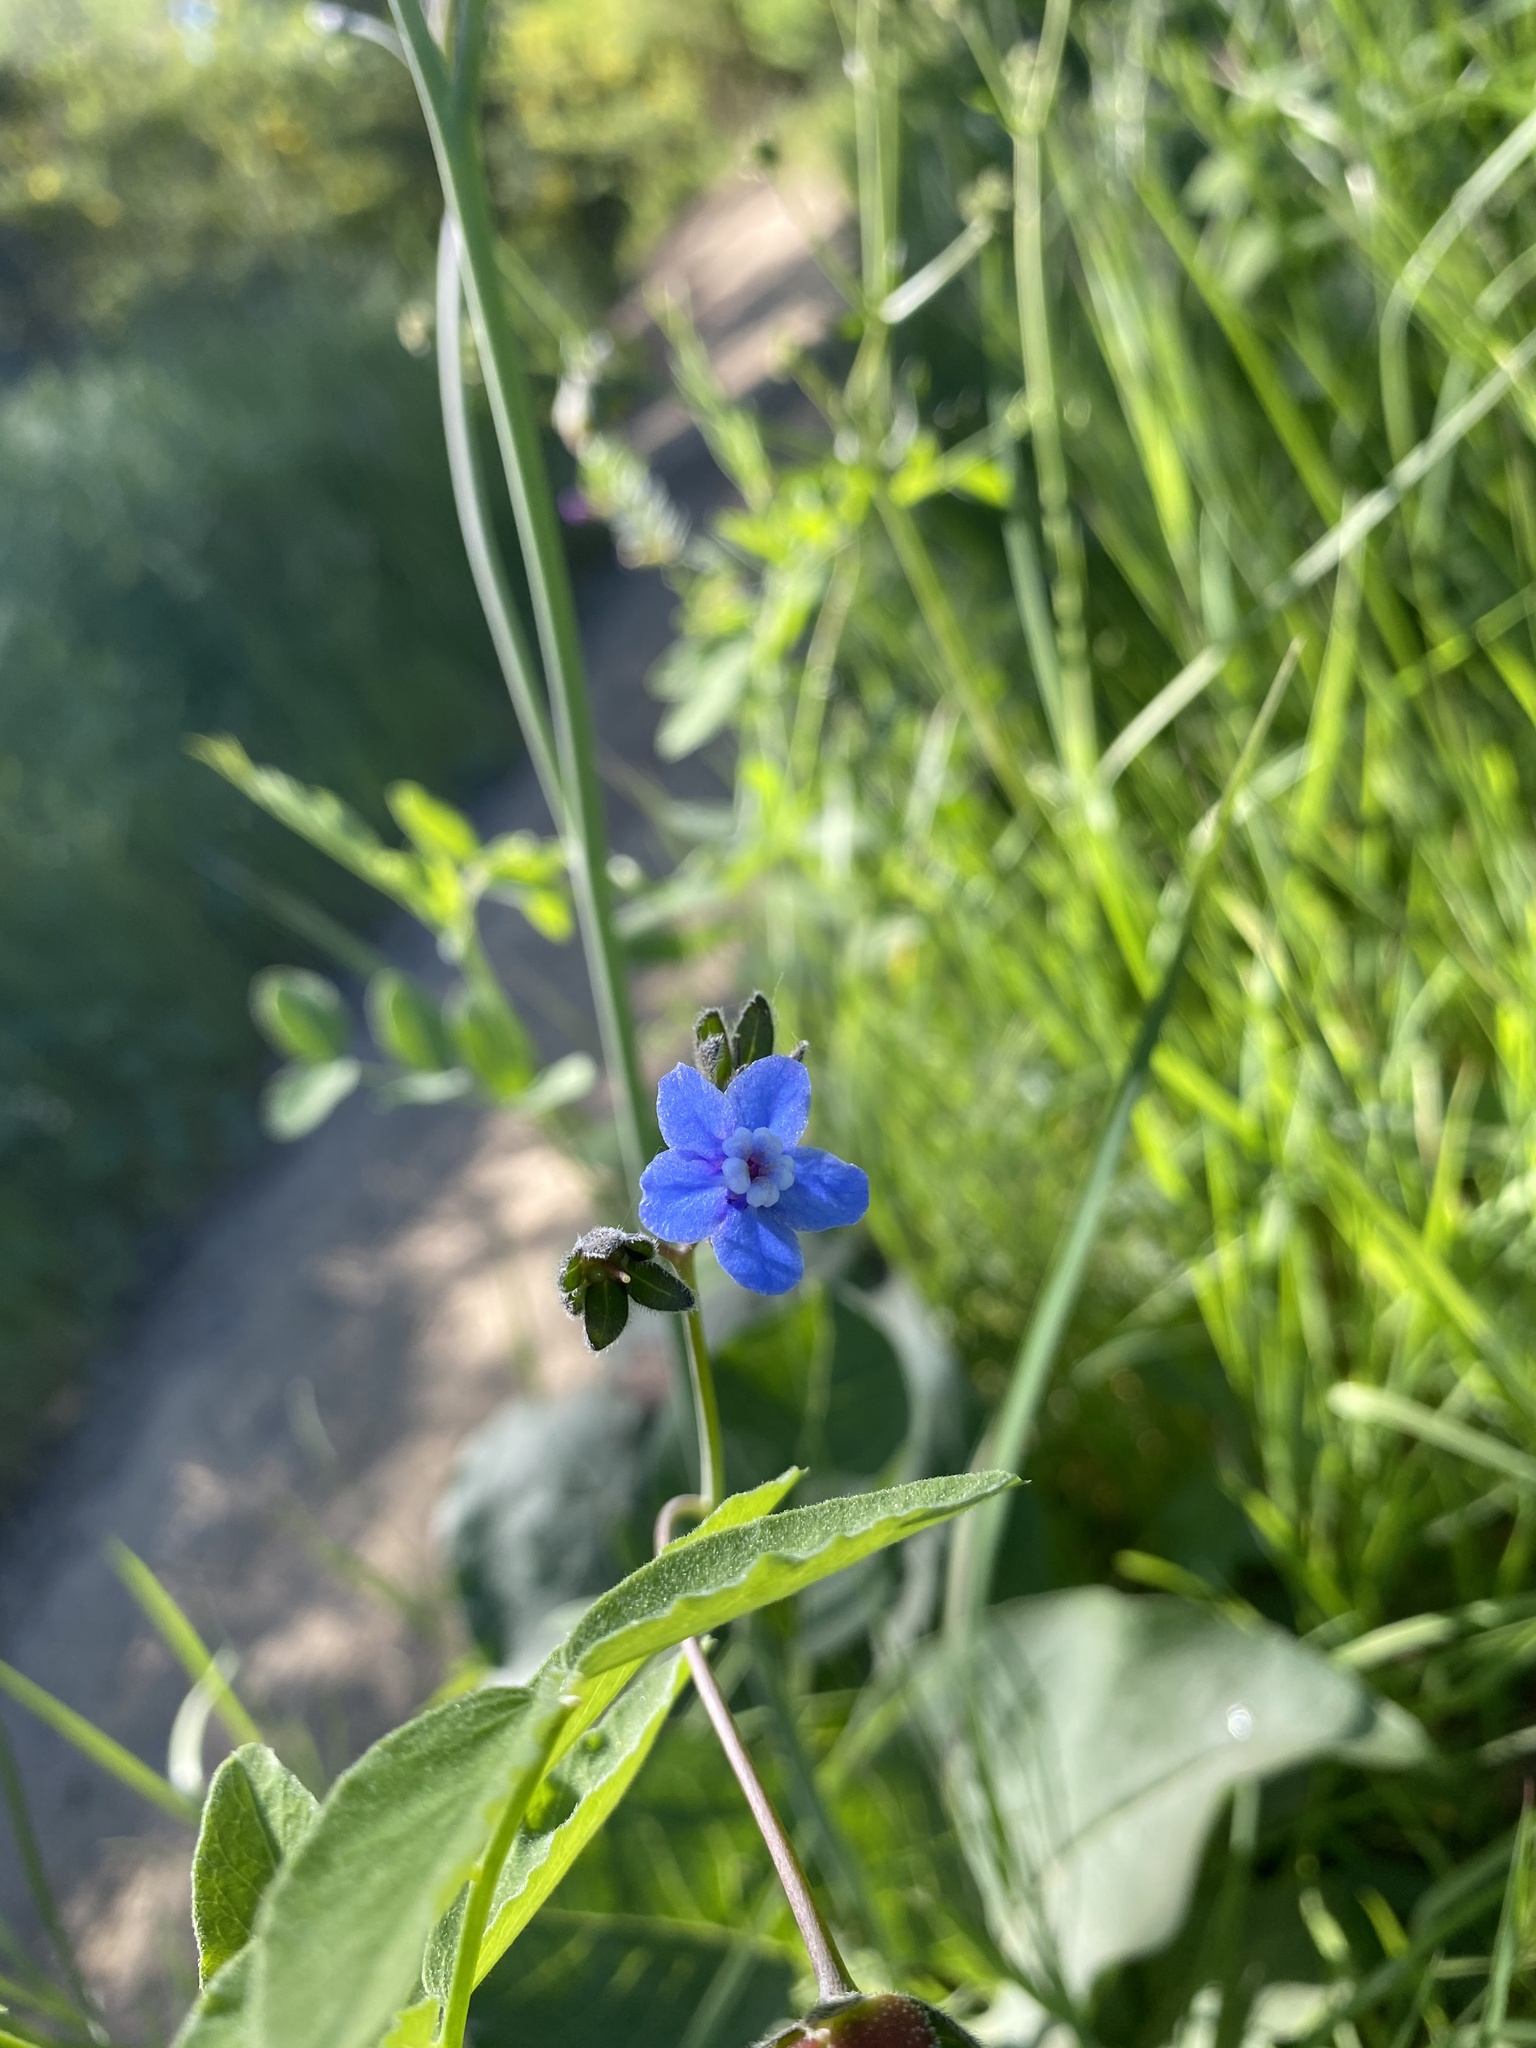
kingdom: Plantae
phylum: Tracheophyta
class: Magnoliopsida
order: Boraginales
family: Boraginaceae
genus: Adelinia
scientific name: Adelinia grande
